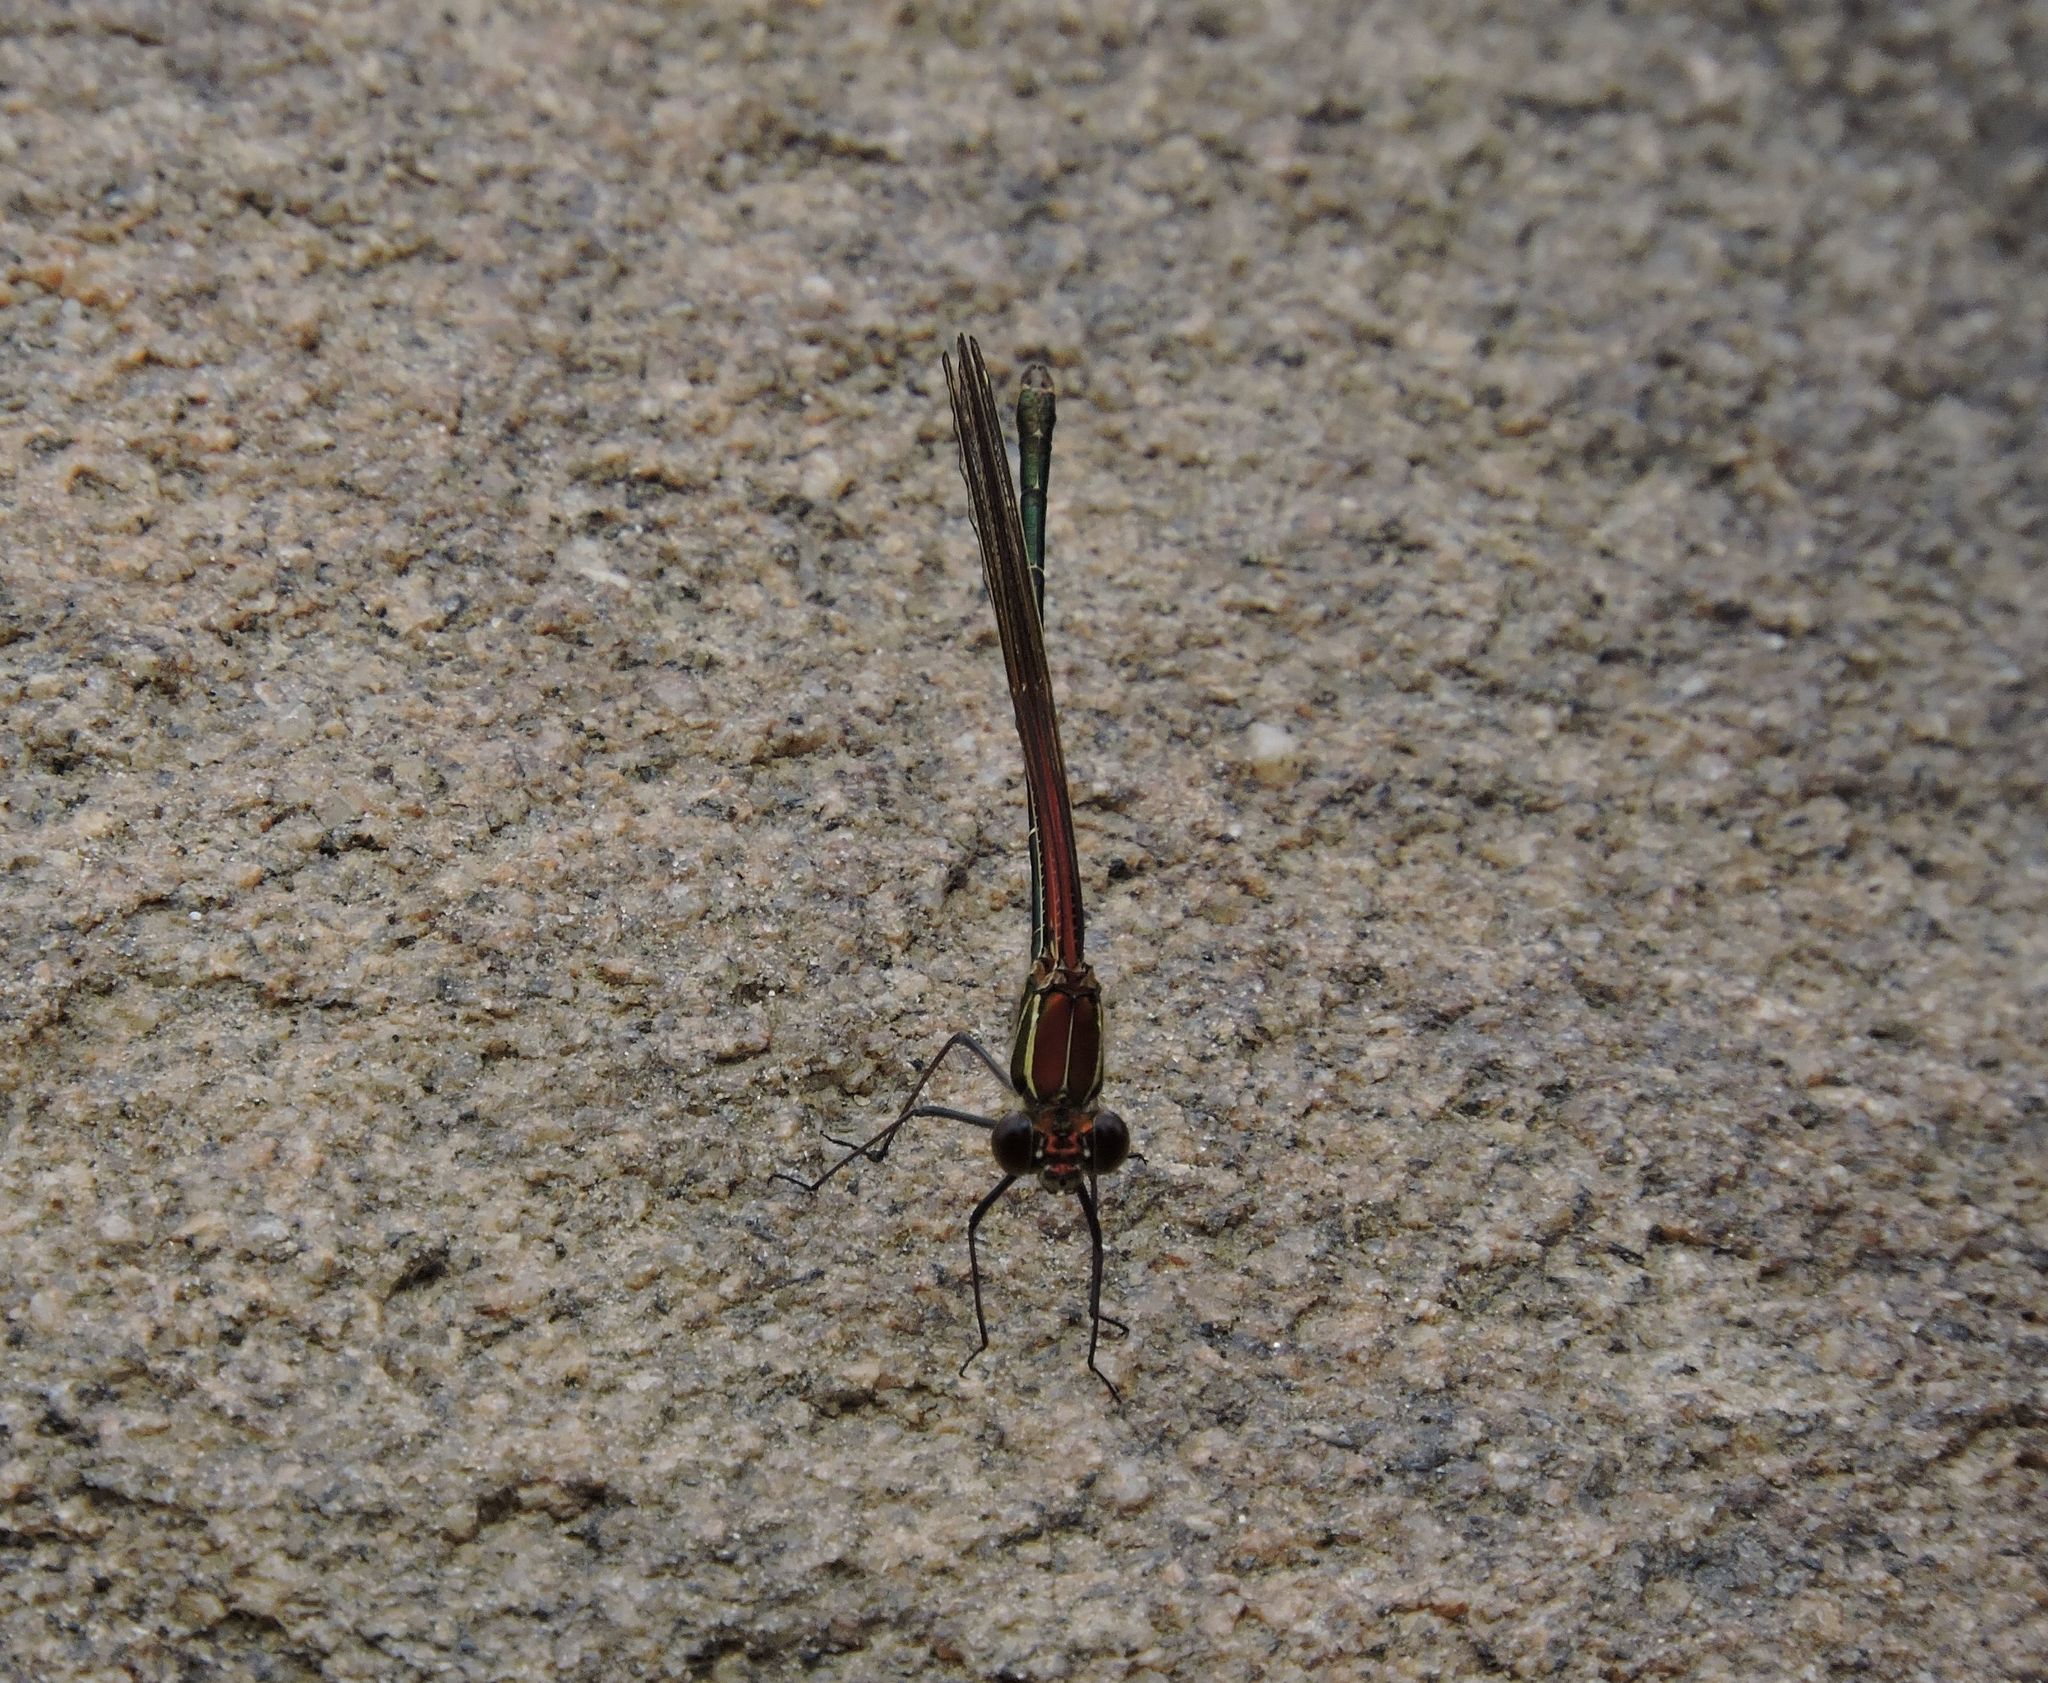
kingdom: Animalia
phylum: Arthropoda
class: Insecta
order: Odonata
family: Calopterygidae
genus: Hetaerina
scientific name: Hetaerina americana
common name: American rubyspot
